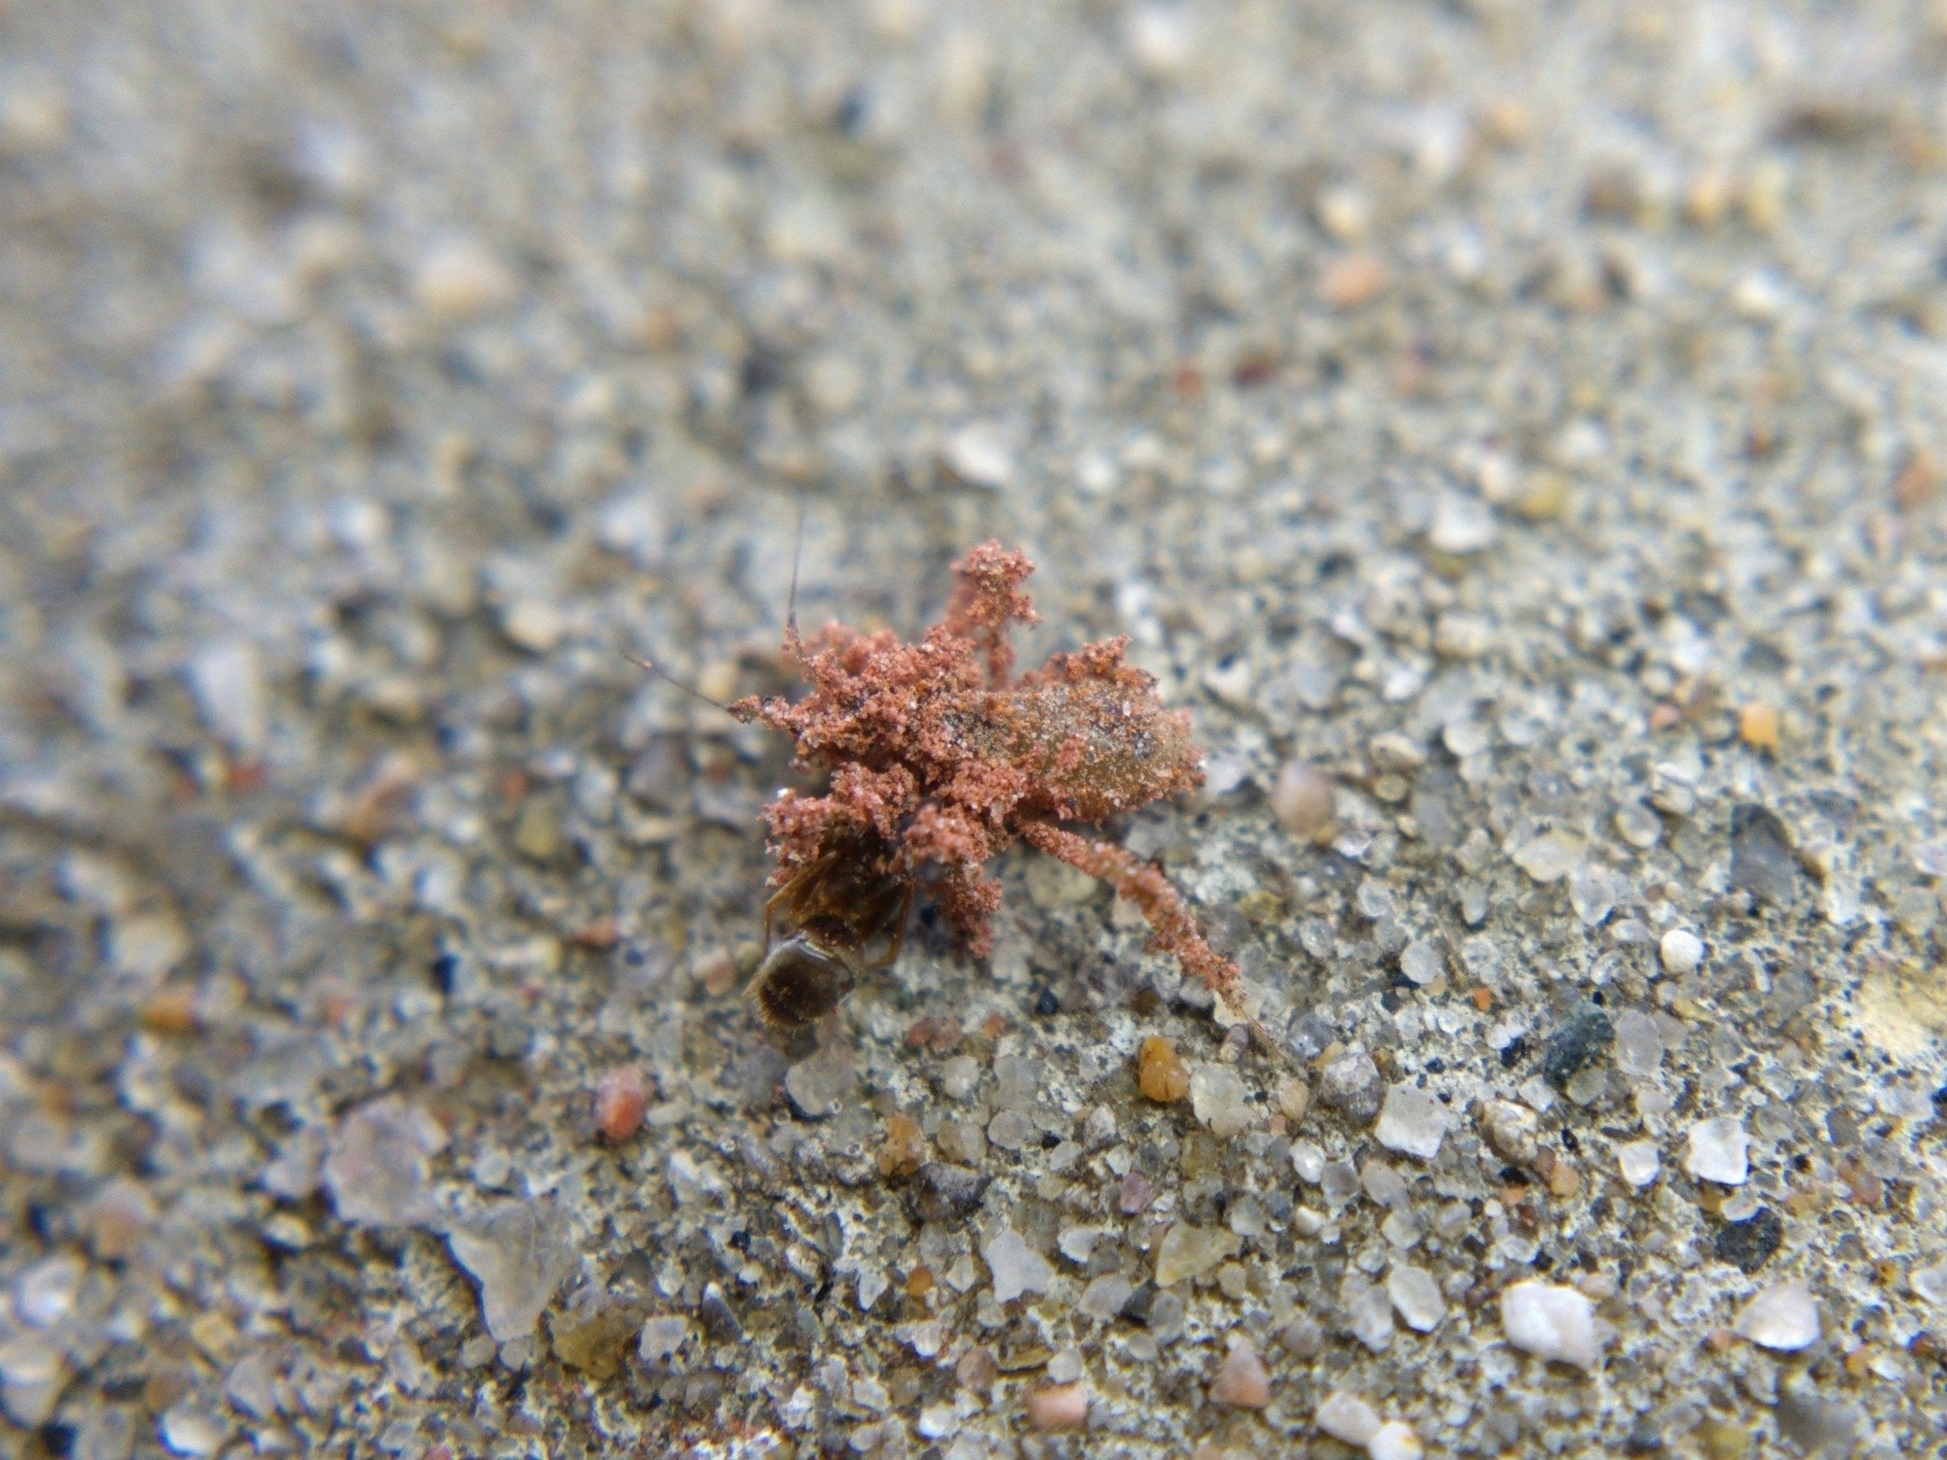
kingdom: Animalia
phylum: Arthropoda
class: Insecta
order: Hemiptera
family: Reduviidae
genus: Reduvius
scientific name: Reduvius personatus
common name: Masked hunter
